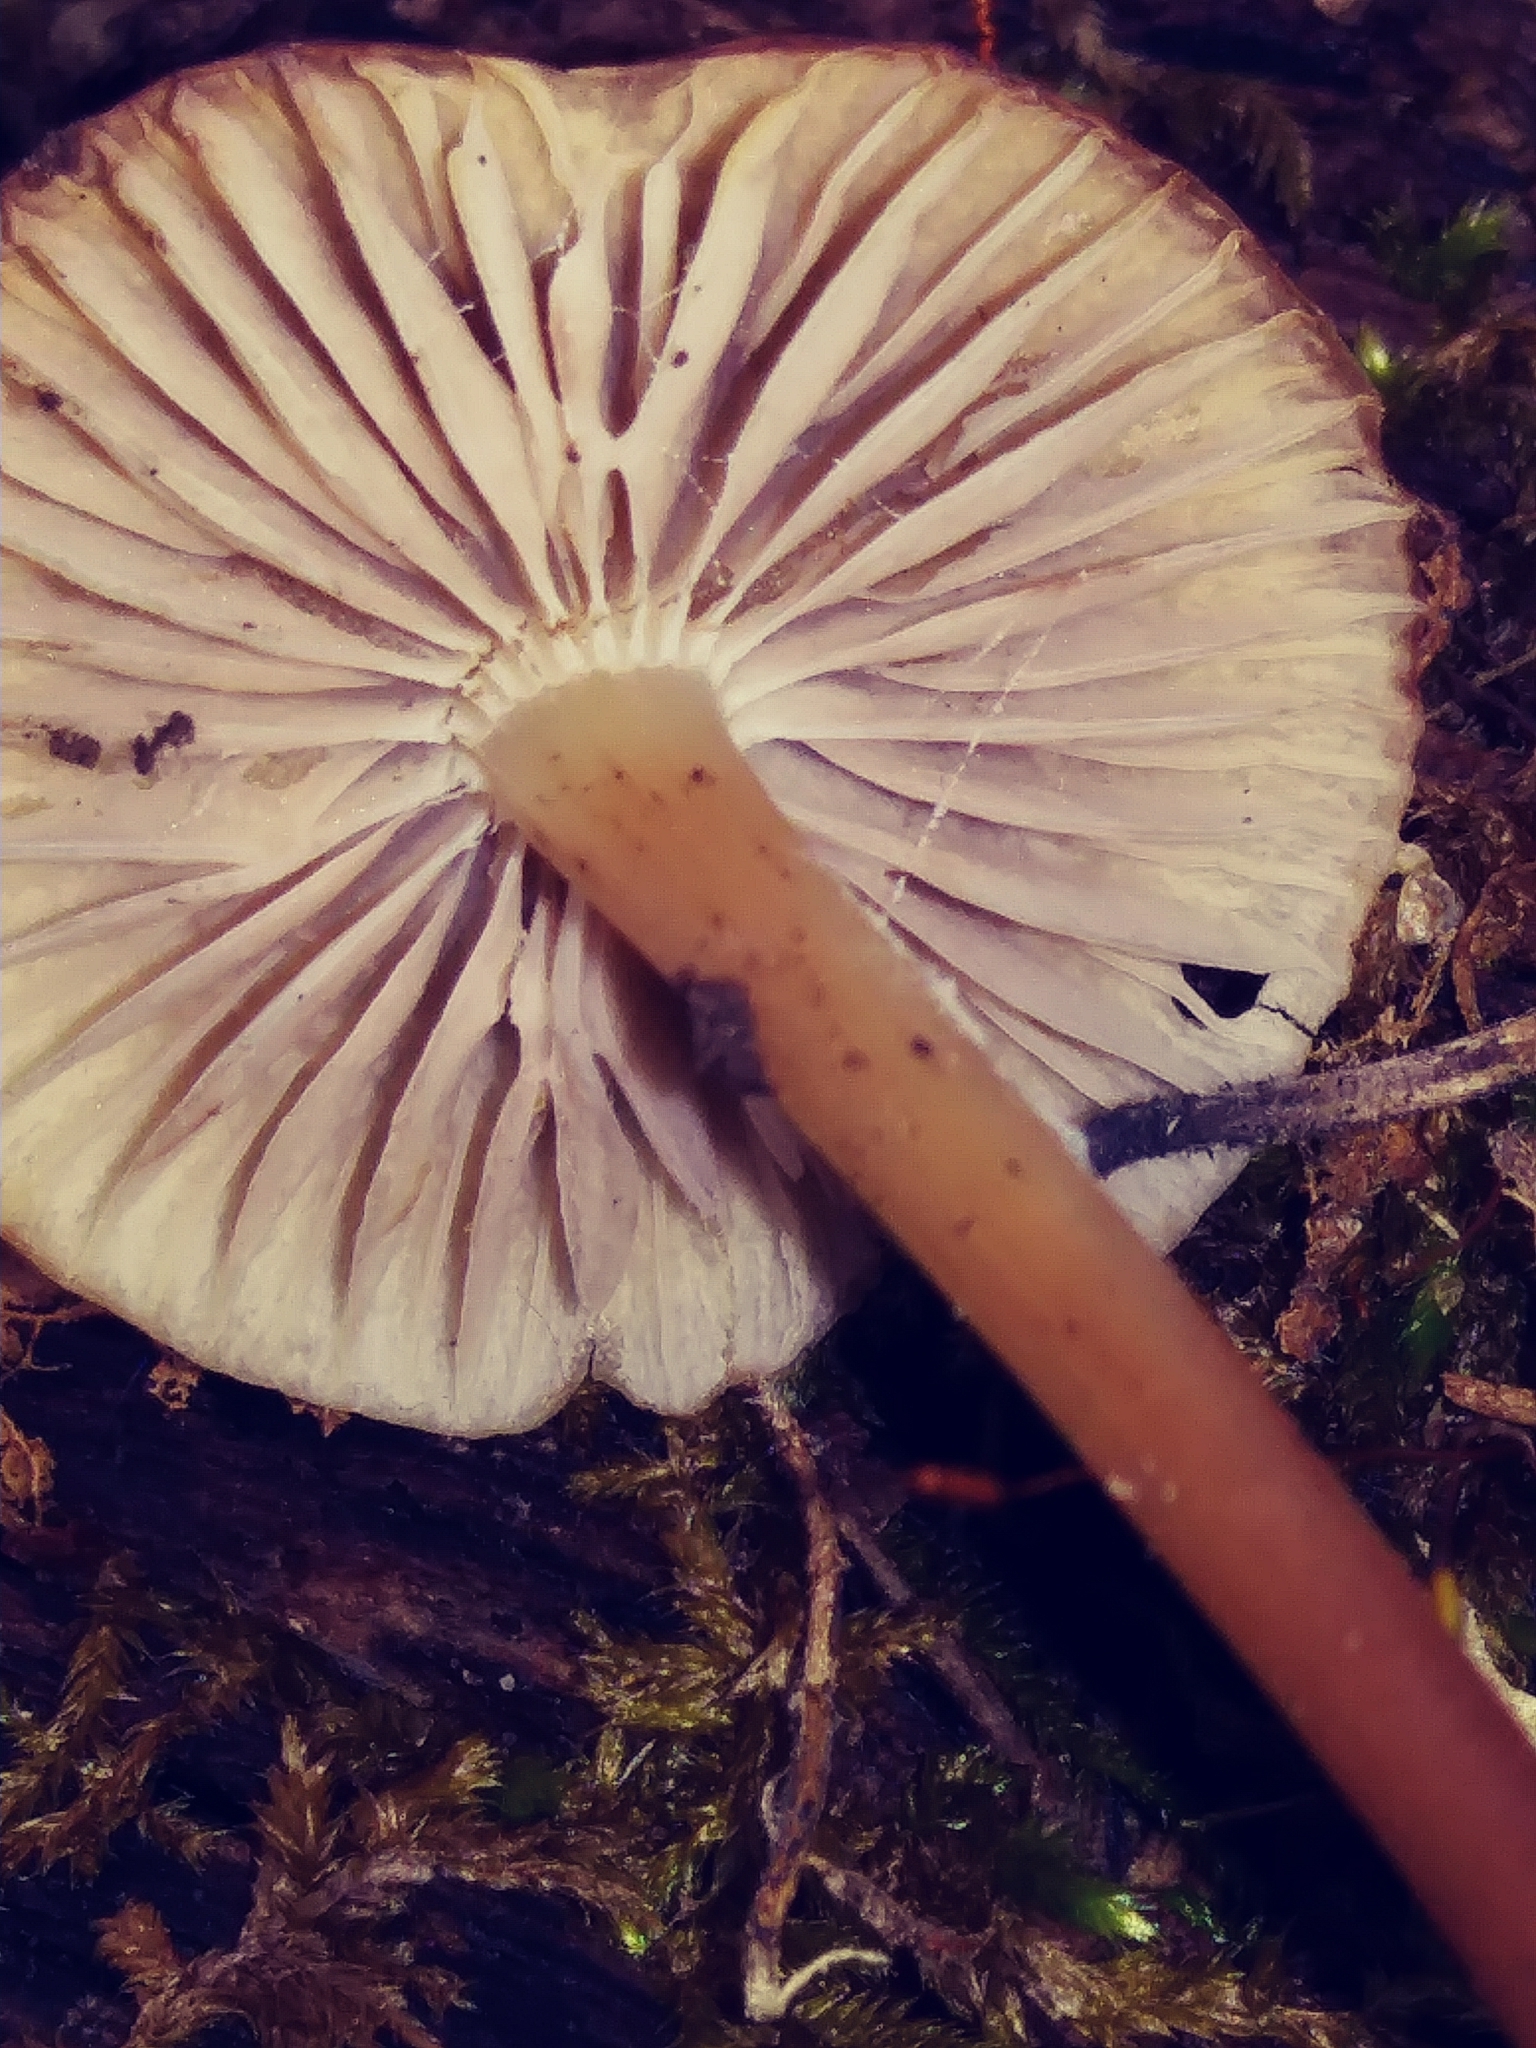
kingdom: Fungi
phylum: Basidiomycota
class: Agaricomycetes
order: Agaricales
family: Strophariaceae
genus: Hypholoma
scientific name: Hypholoma lateritium
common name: Brick caps
